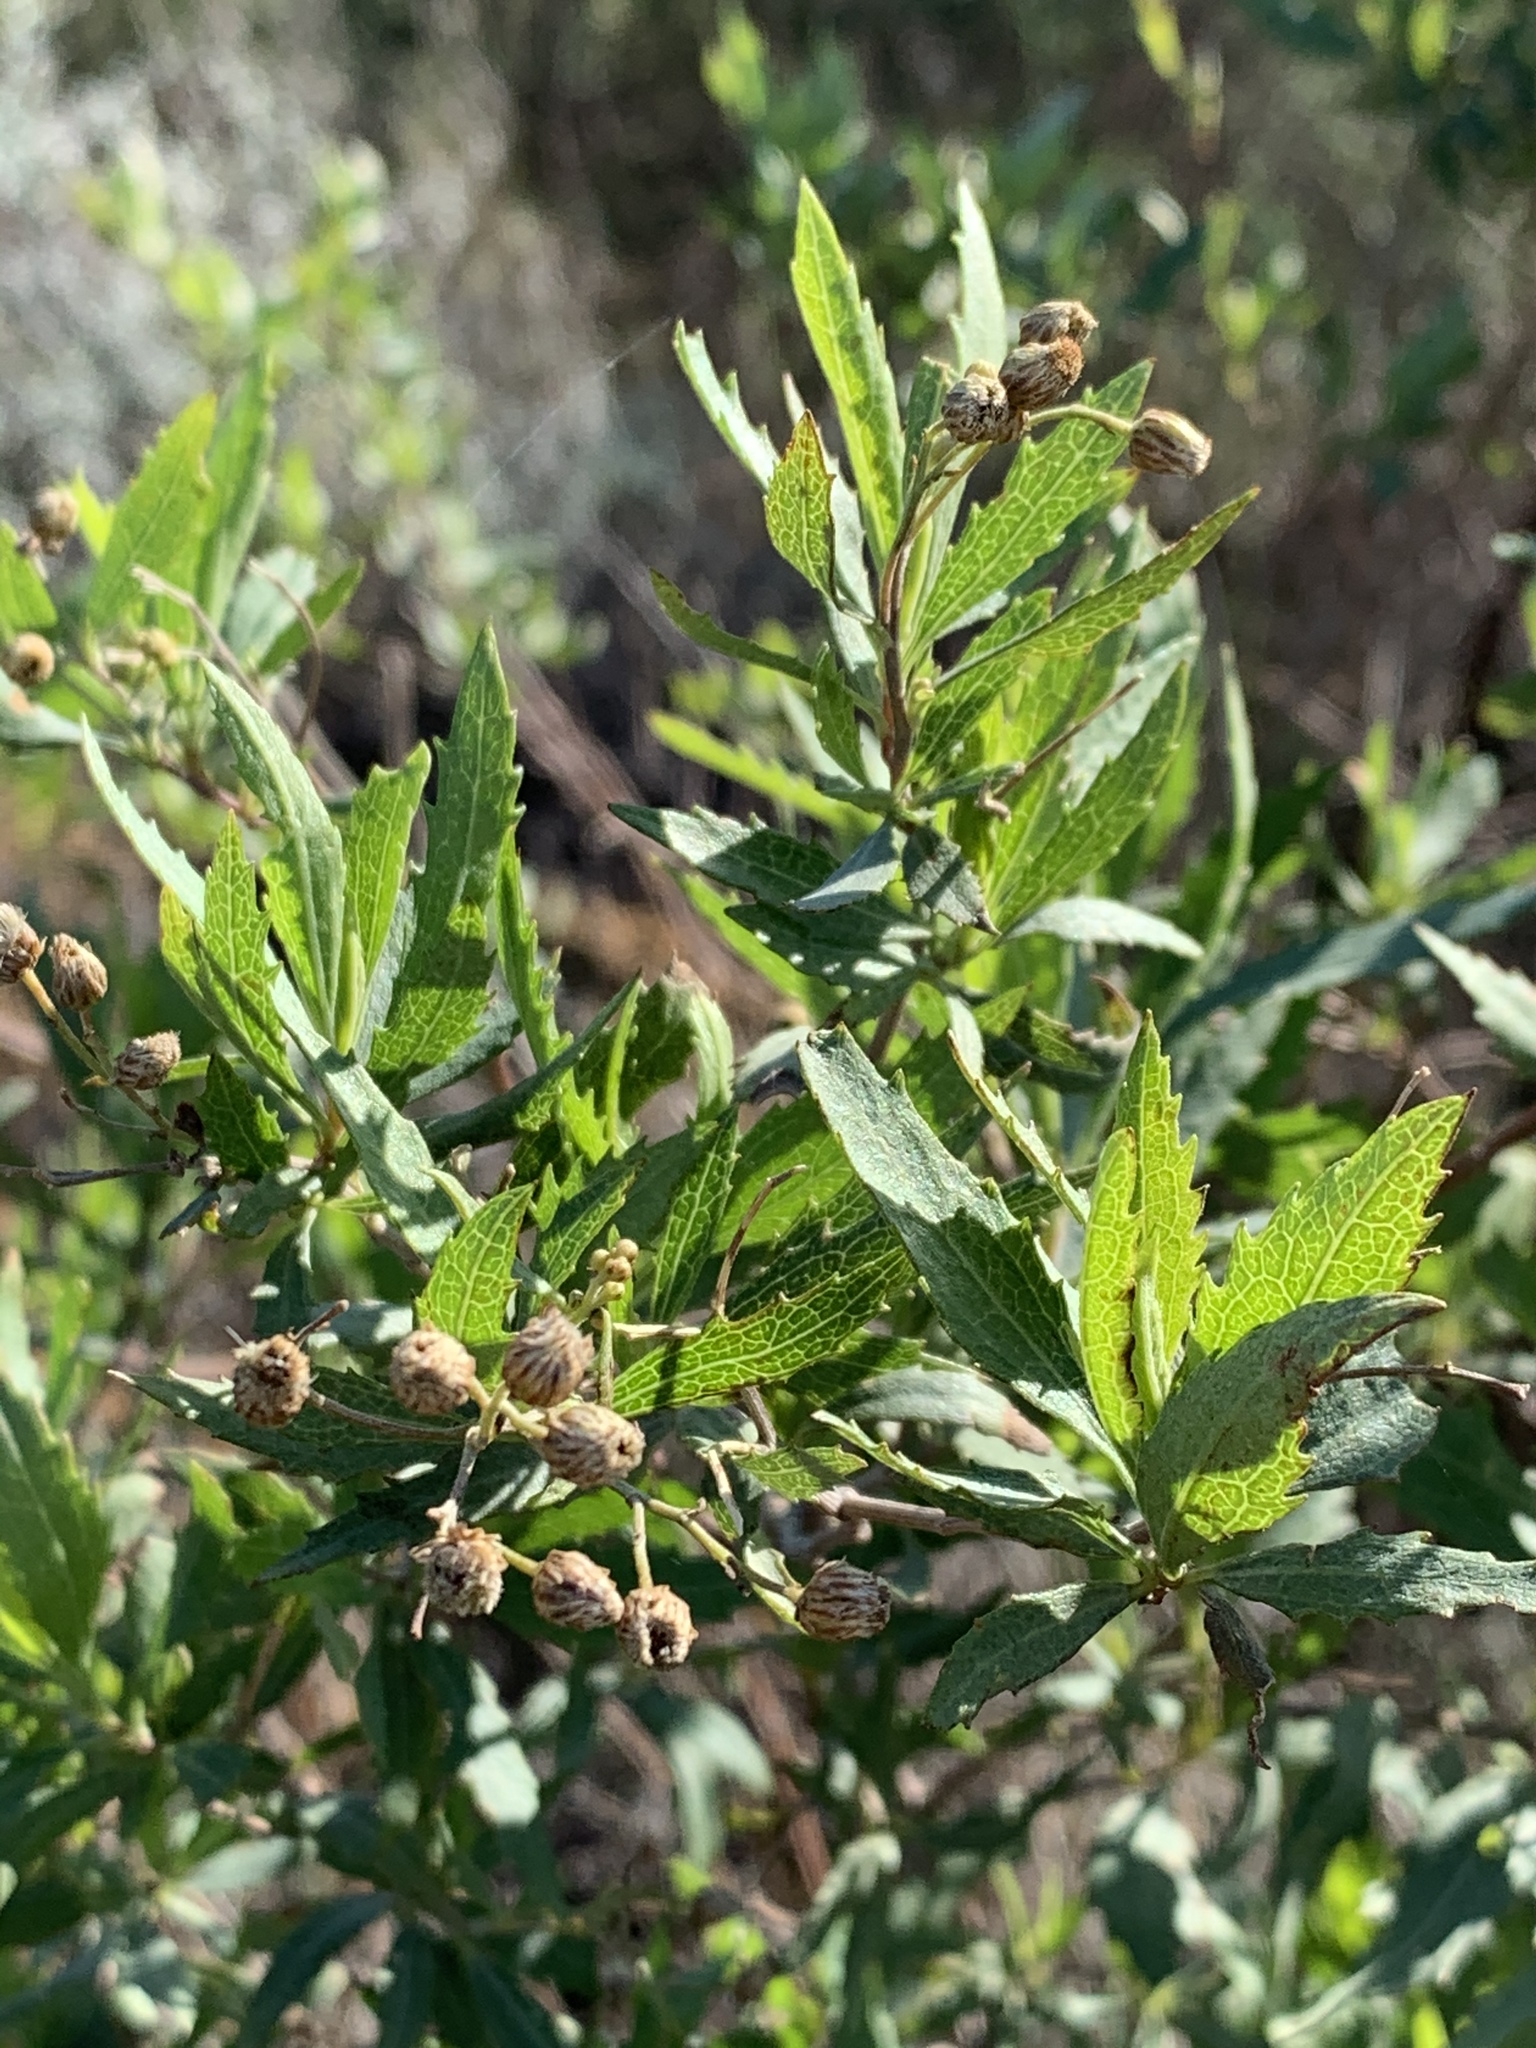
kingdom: Plantae
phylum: Tracheophyta
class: Magnoliopsida
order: Asterales
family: Asteraceae
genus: Nidorella
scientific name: Nidorella ivifolia
